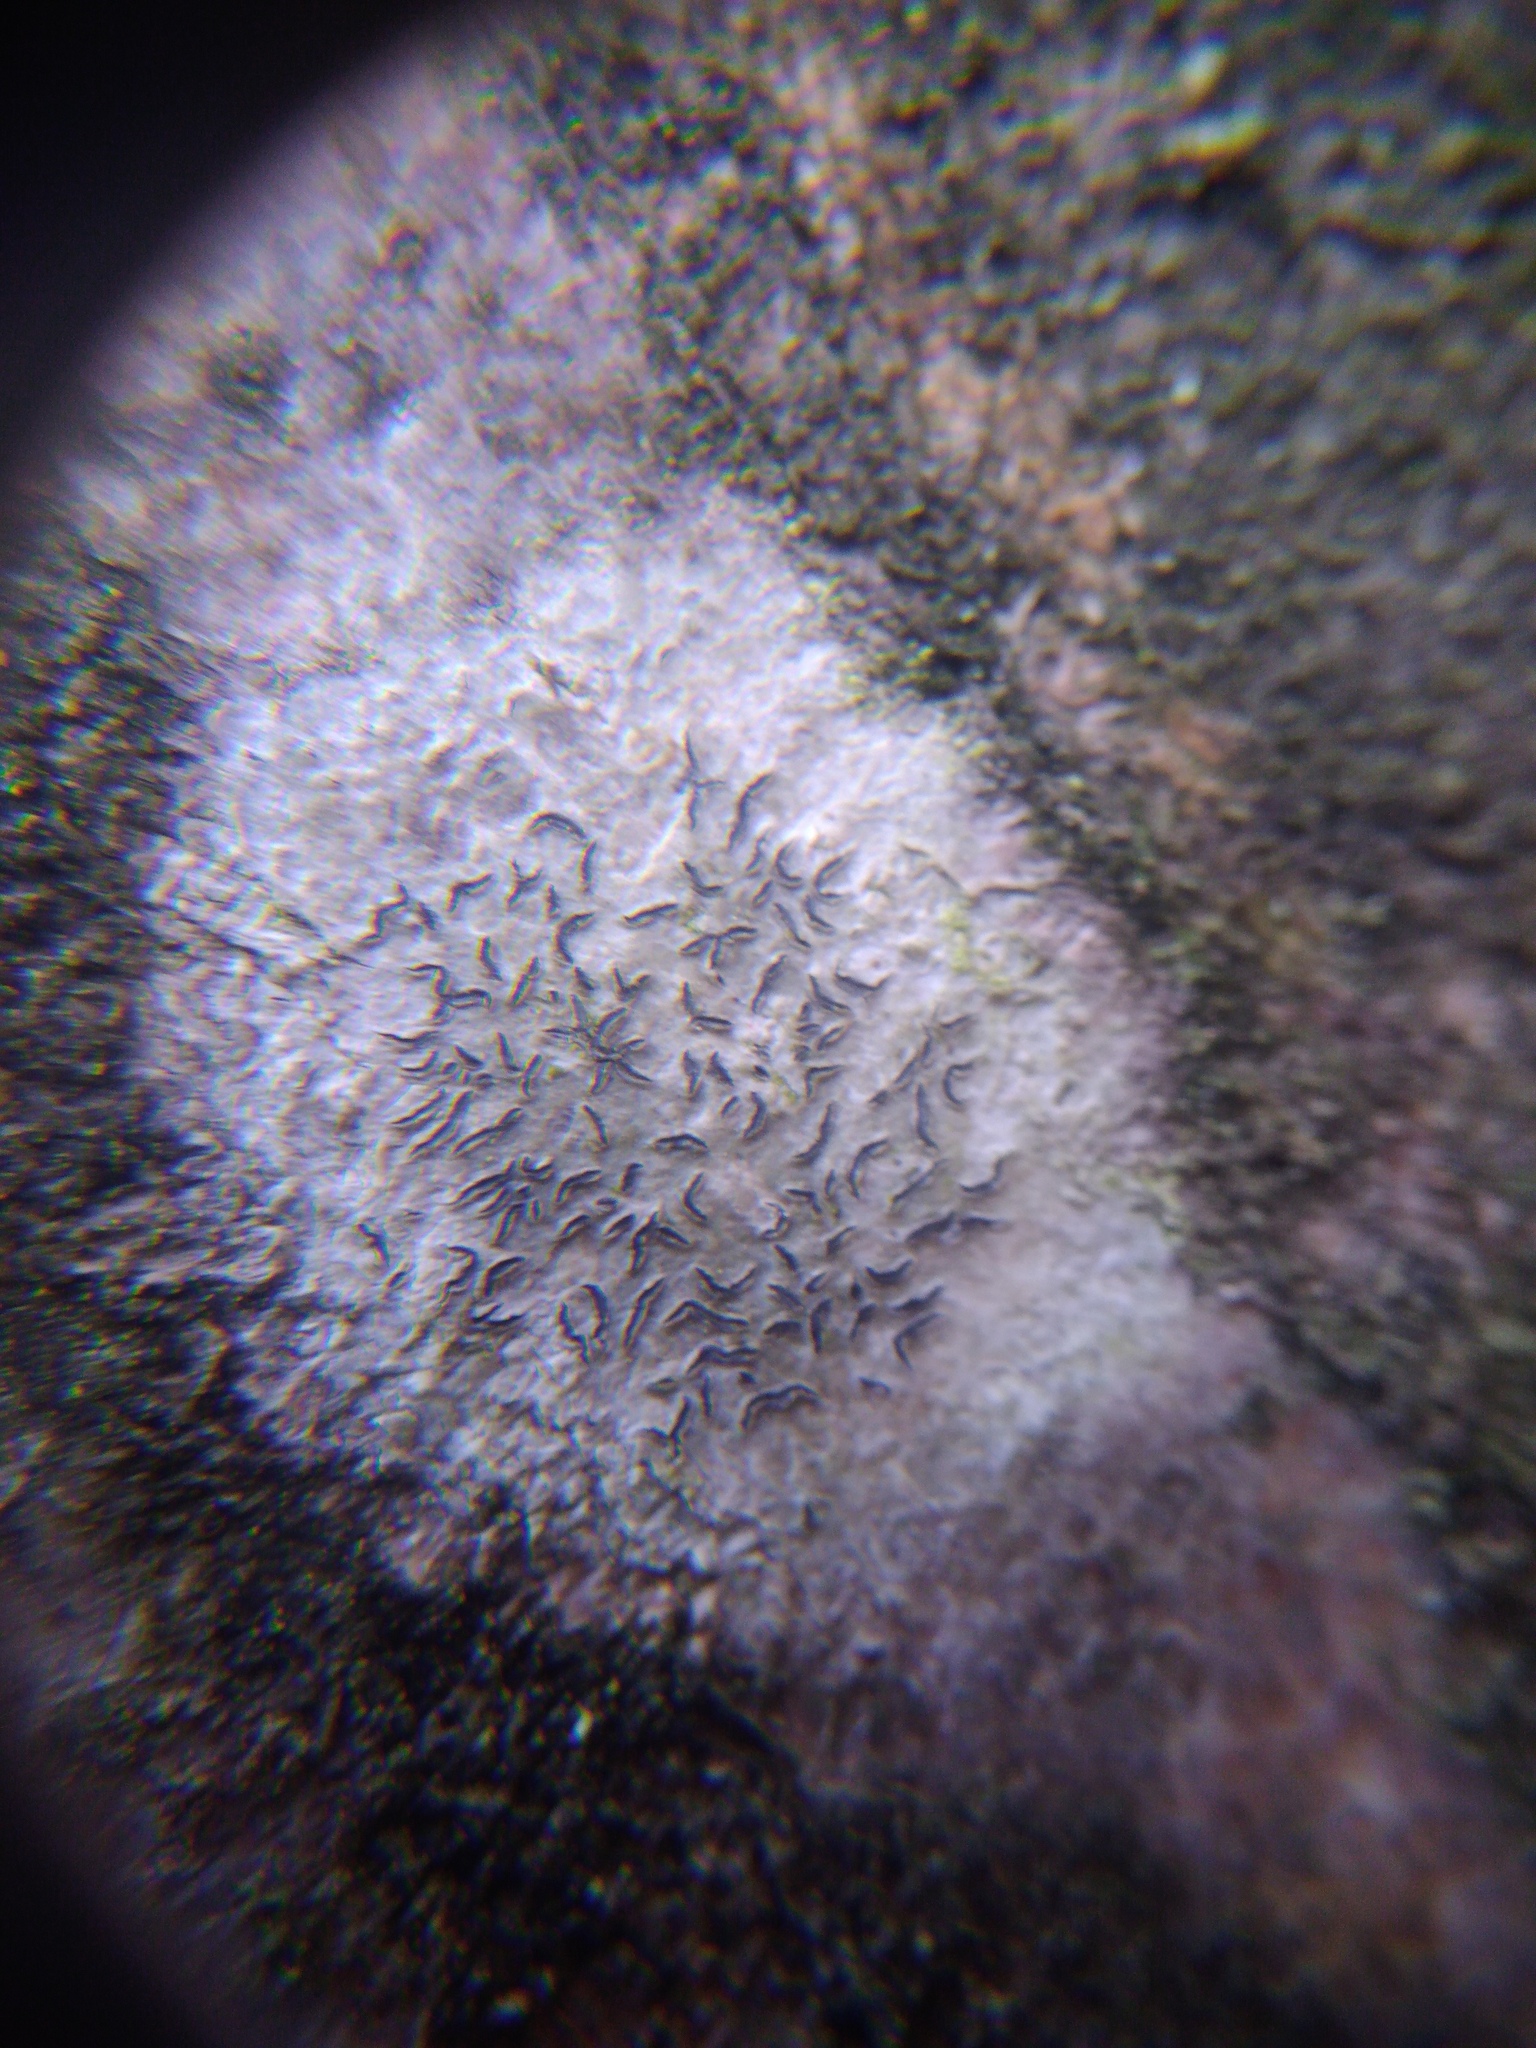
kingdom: Fungi
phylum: Ascomycota
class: Lecanoromycetes
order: Ostropales
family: Graphidaceae
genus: Graphis
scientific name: Graphis scripta
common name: Script lichen
